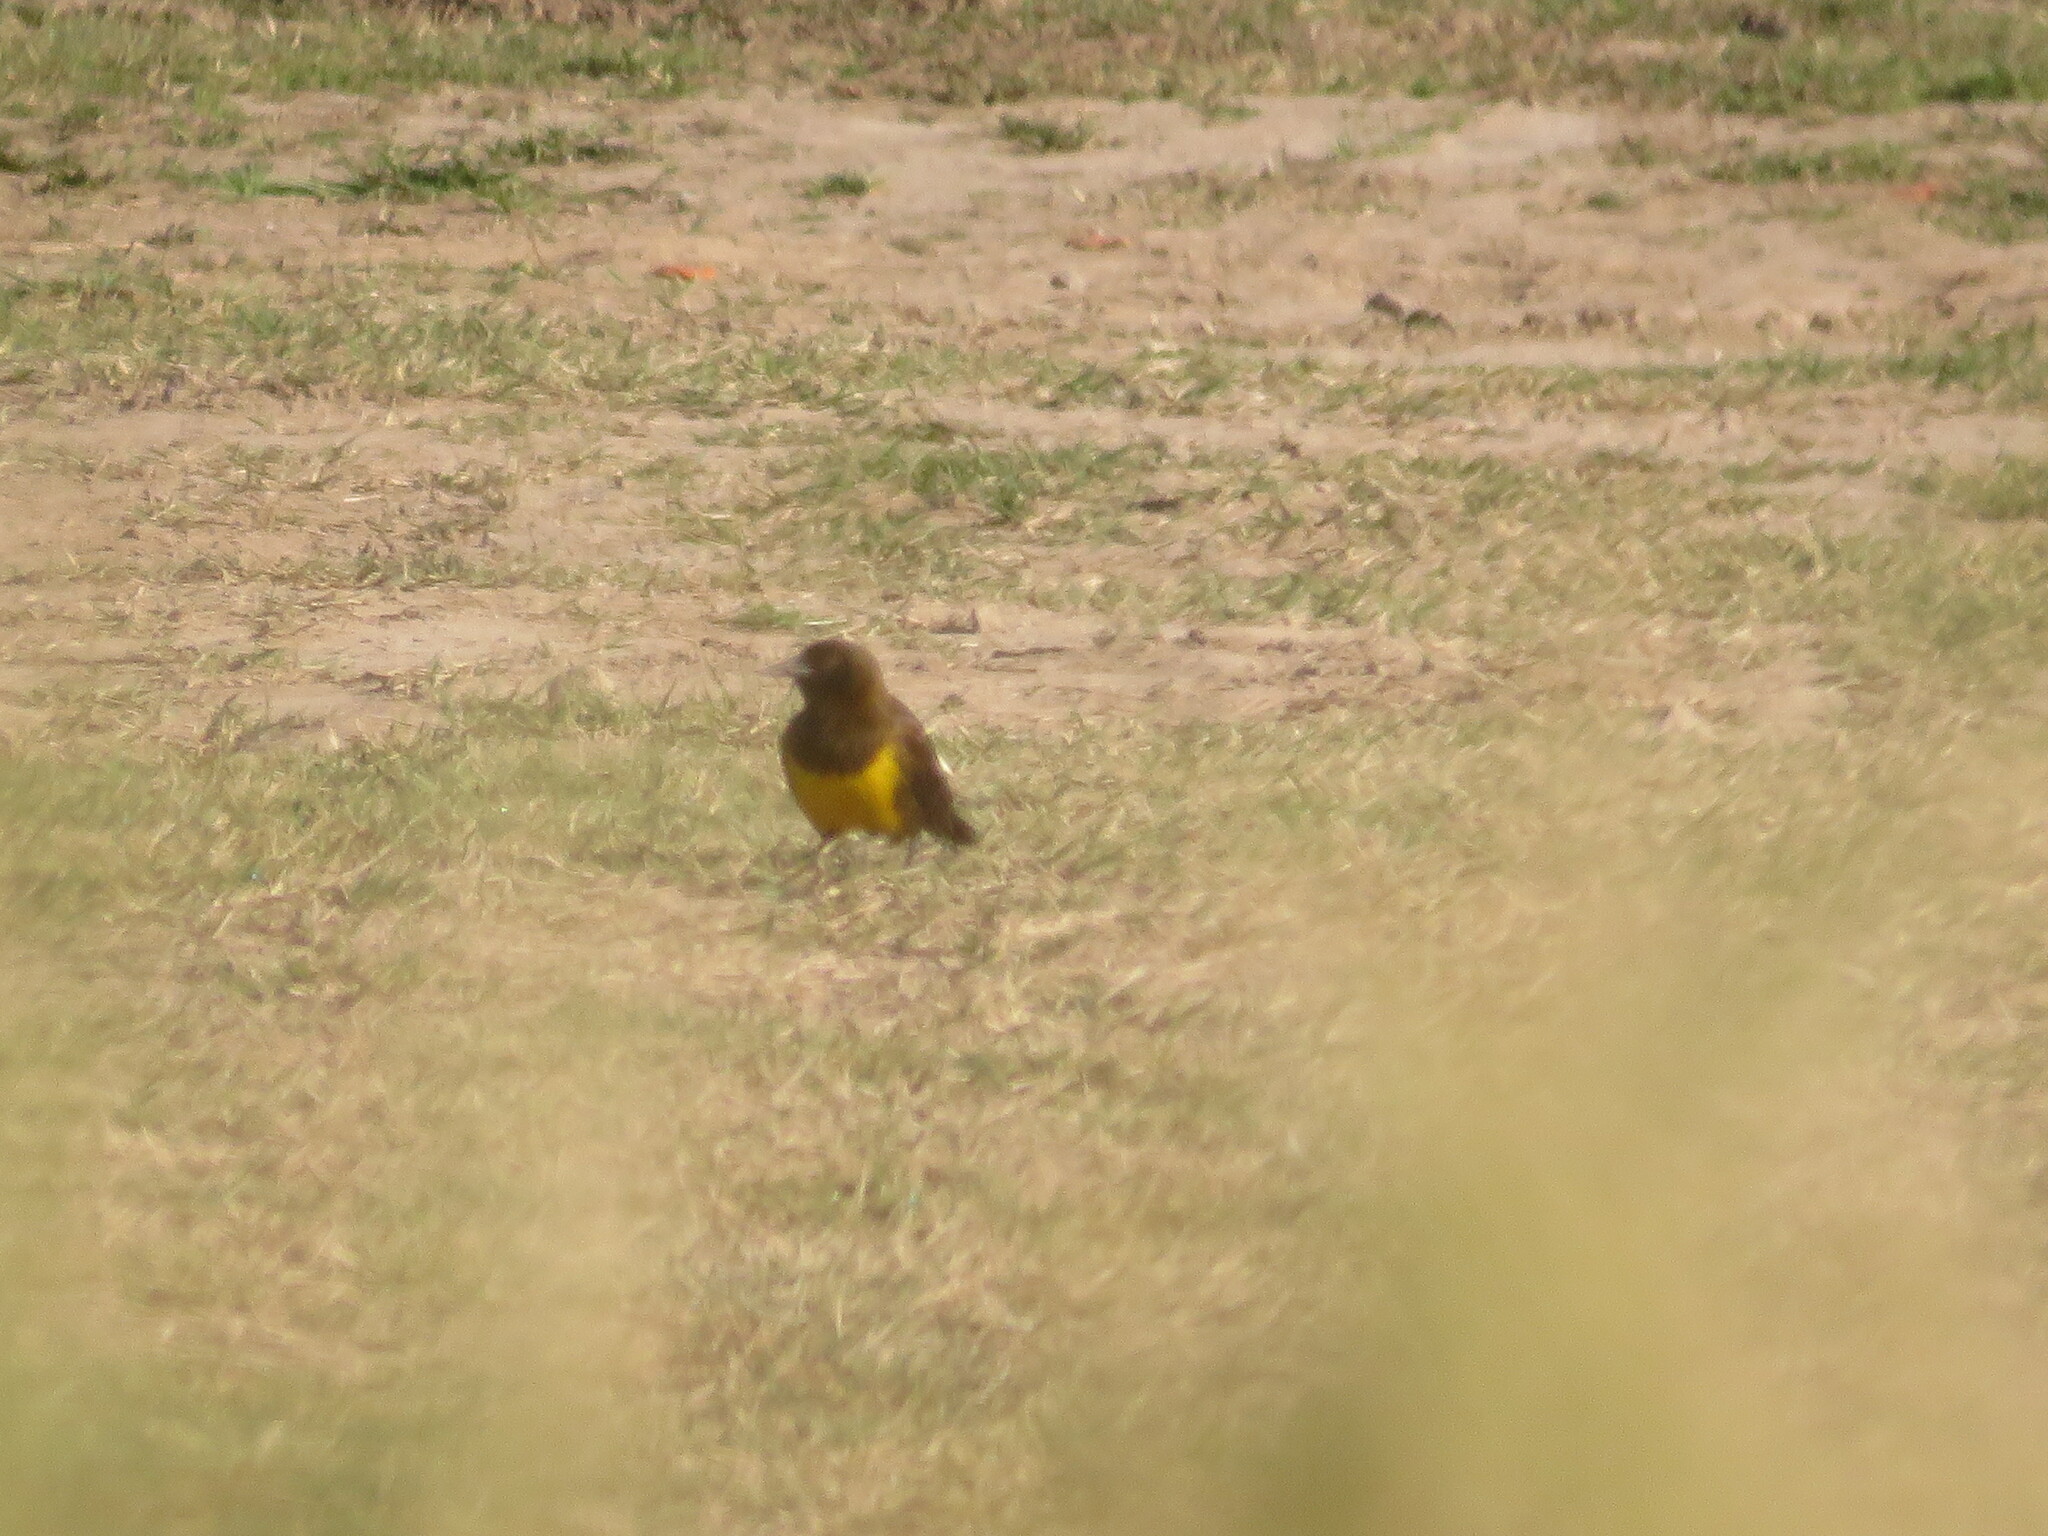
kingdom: Animalia
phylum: Chordata
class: Aves
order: Passeriformes
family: Icteridae
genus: Pseudoleistes
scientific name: Pseudoleistes virescens
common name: Brown-and-yellow marshbird
